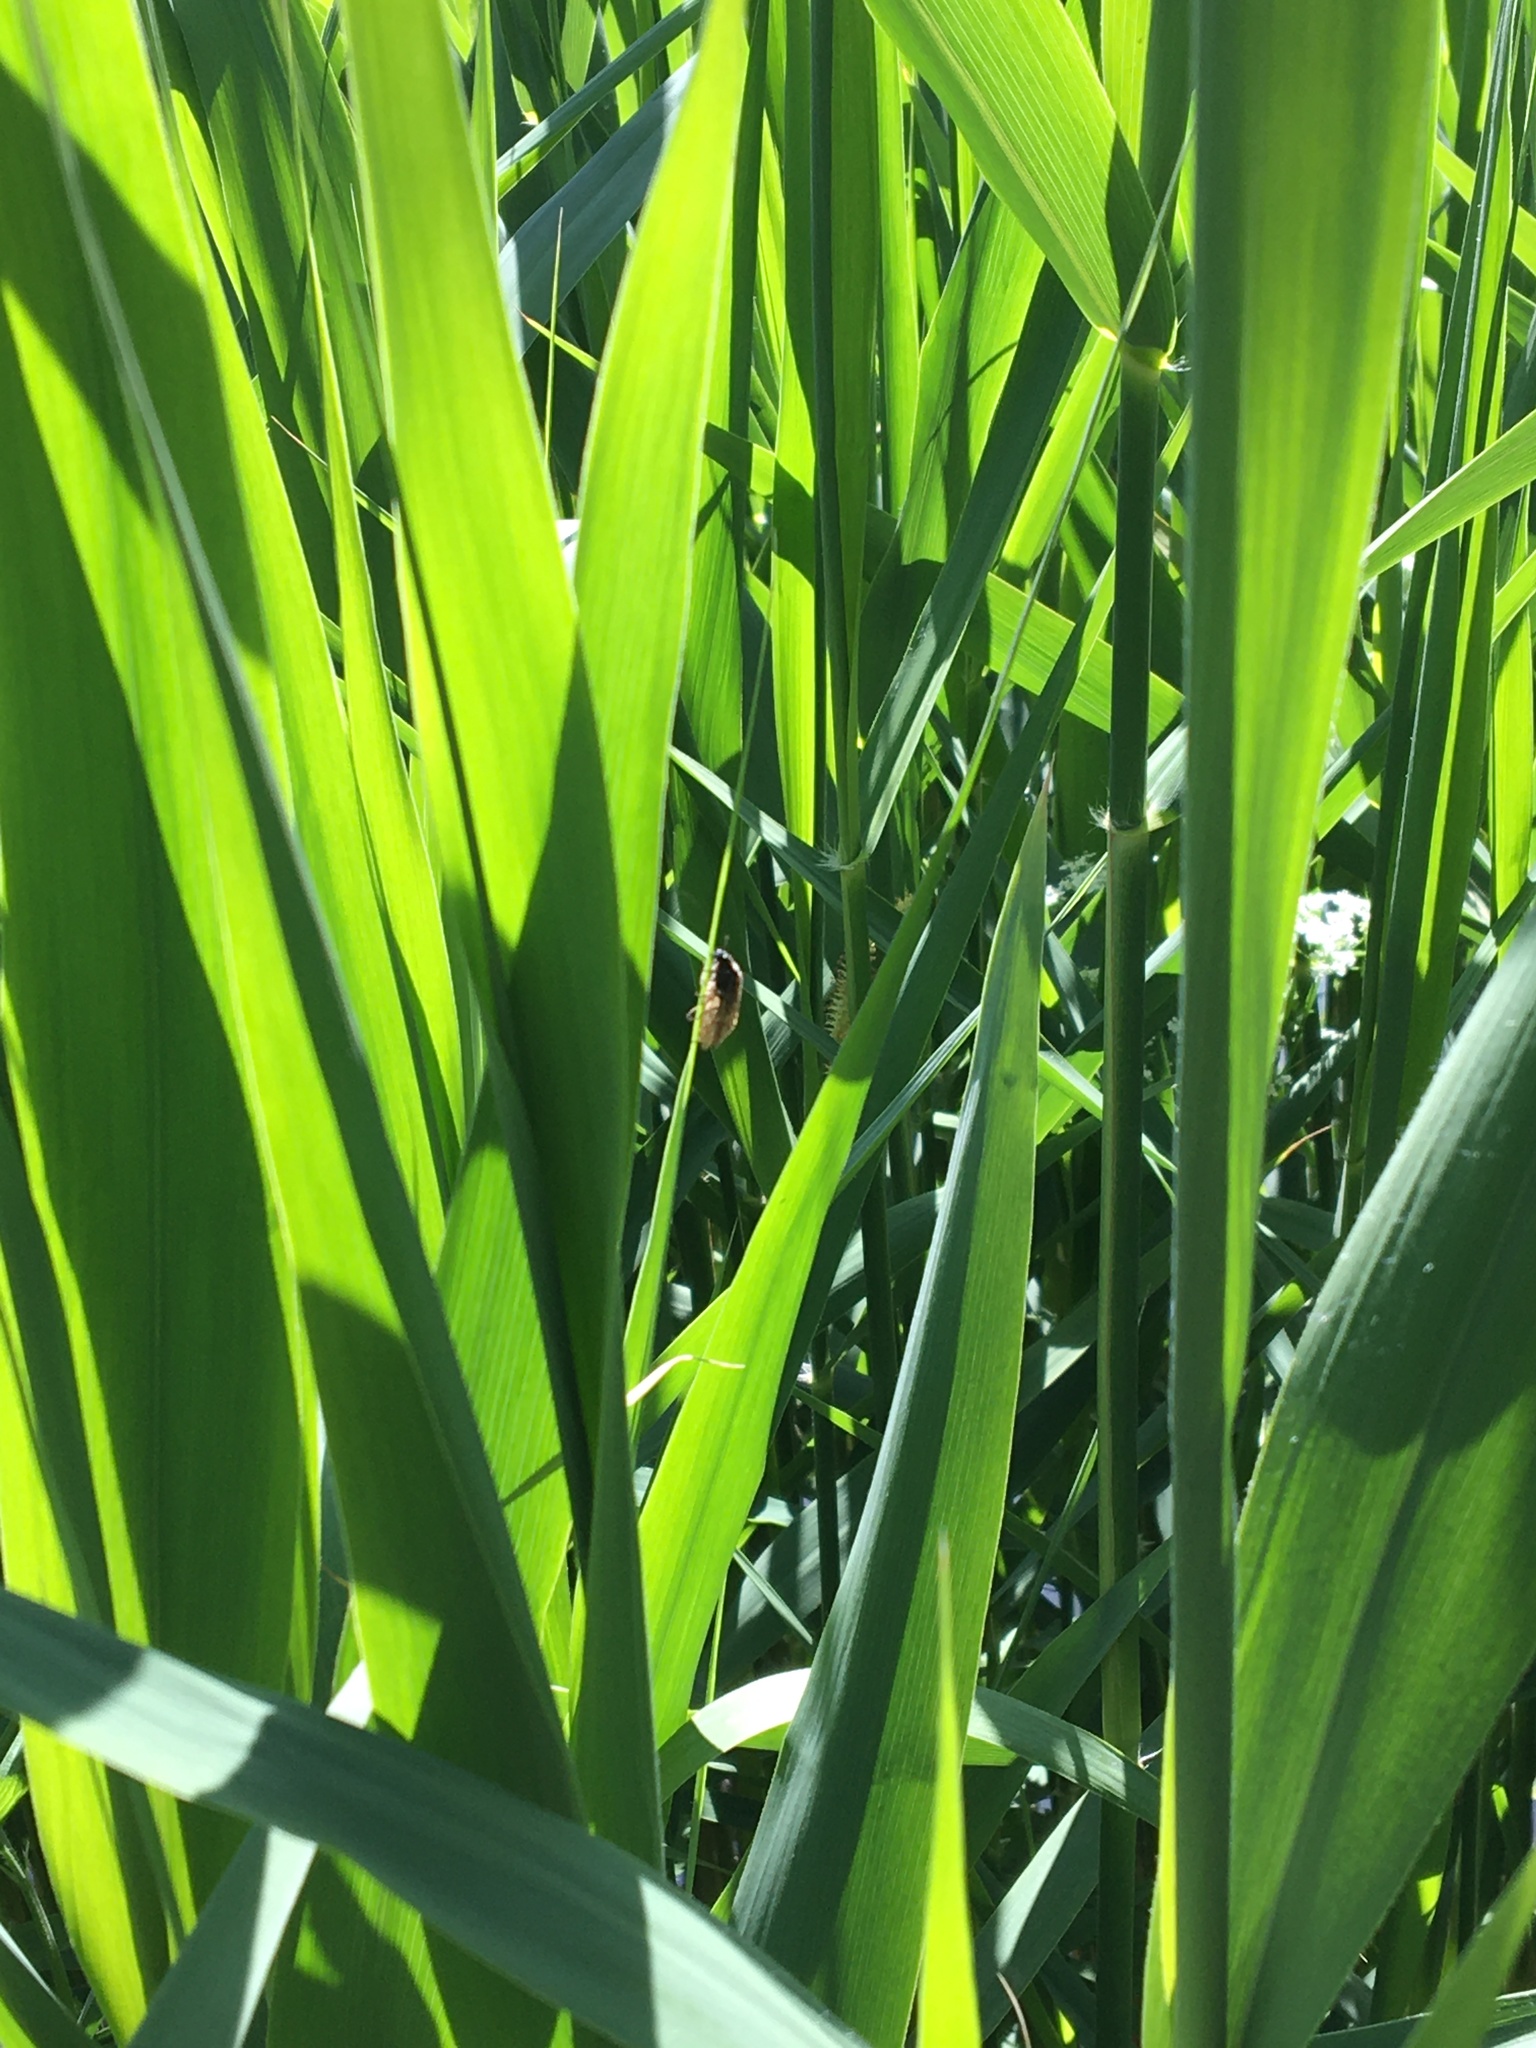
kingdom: Animalia
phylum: Arthropoda
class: Insecta
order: Megaloptera
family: Sialidae
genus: Sialis
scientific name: Sialis
